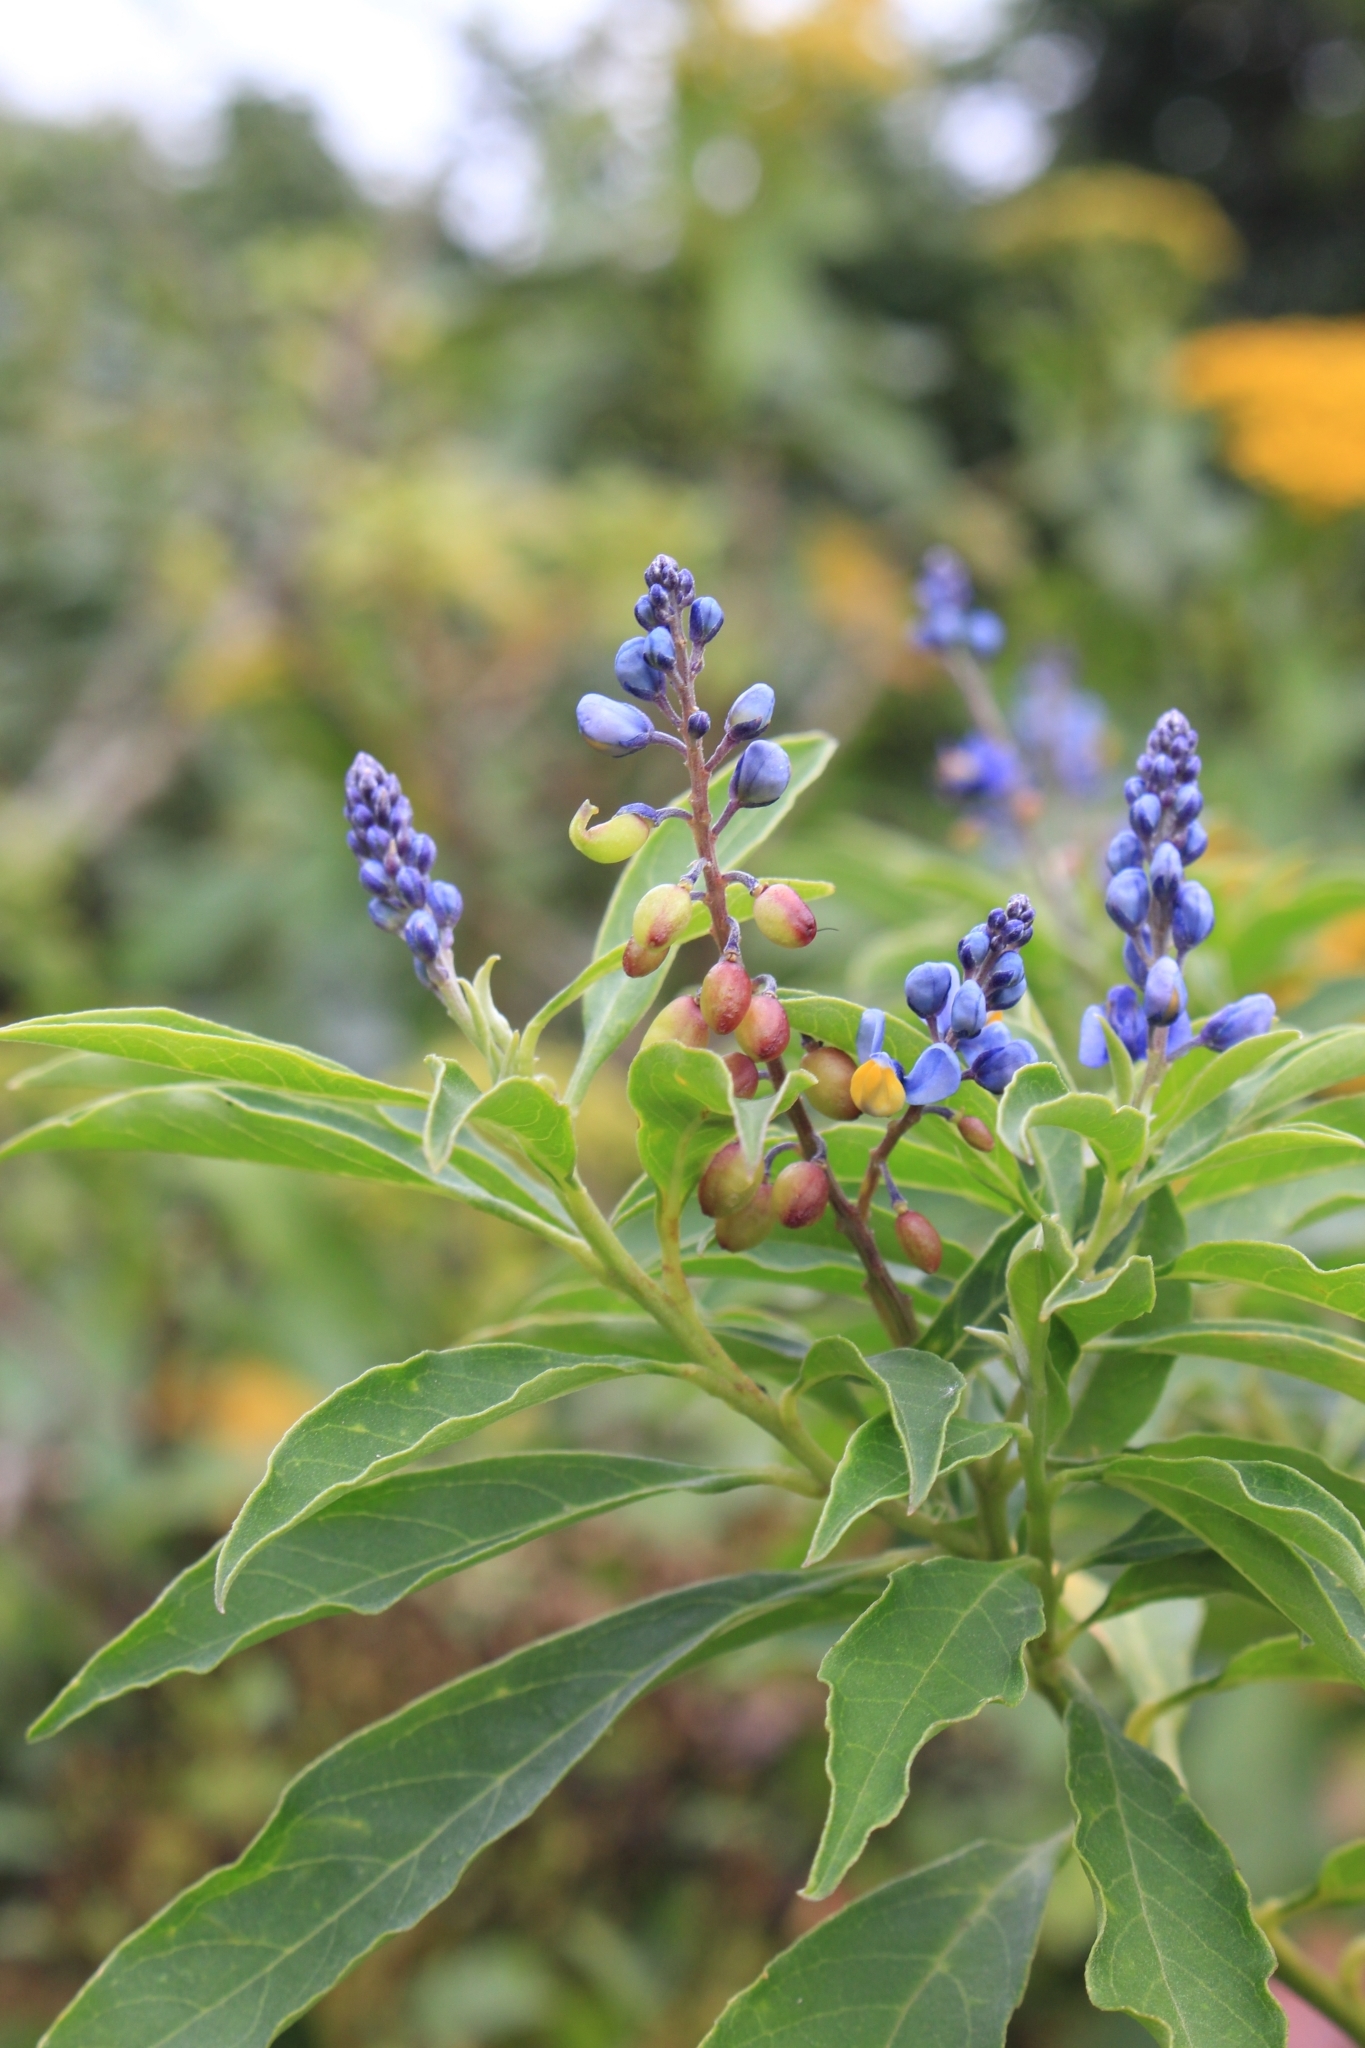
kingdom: Plantae
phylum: Tracheophyta
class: Magnoliopsida
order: Fabales
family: Polygalaceae
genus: Monnina
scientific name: Monnina costaricensis
